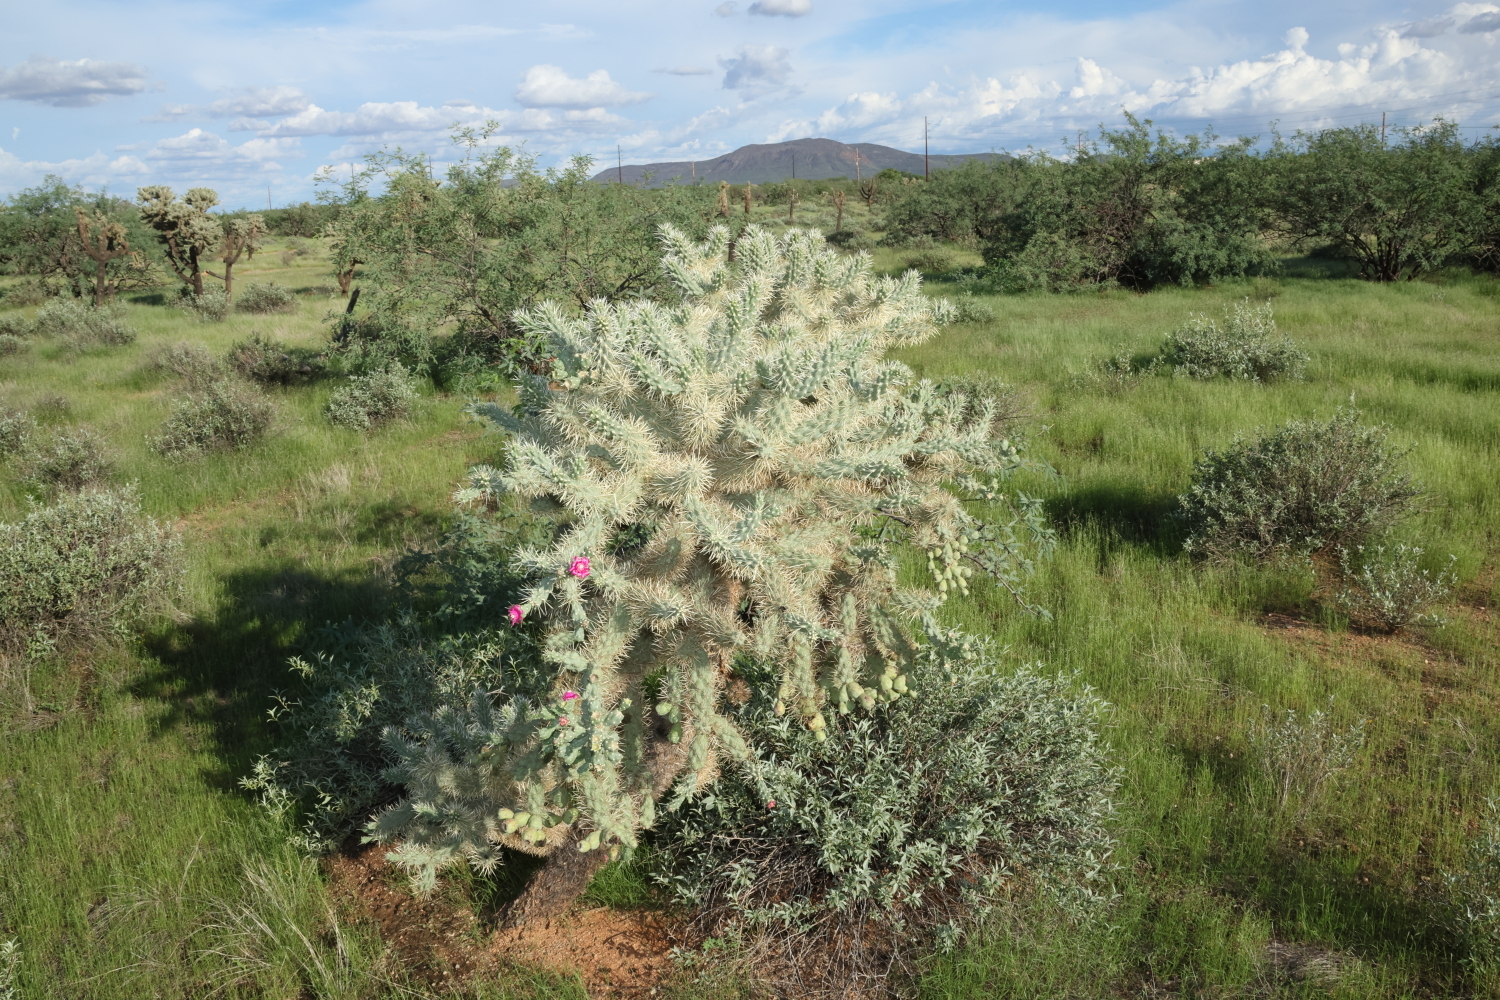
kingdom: Plantae
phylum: Tracheophyta
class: Magnoliopsida
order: Caryophyllales
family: Cactaceae
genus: Cylindropuntia
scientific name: Cylindropuntia fulgida
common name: Jumping cholla
